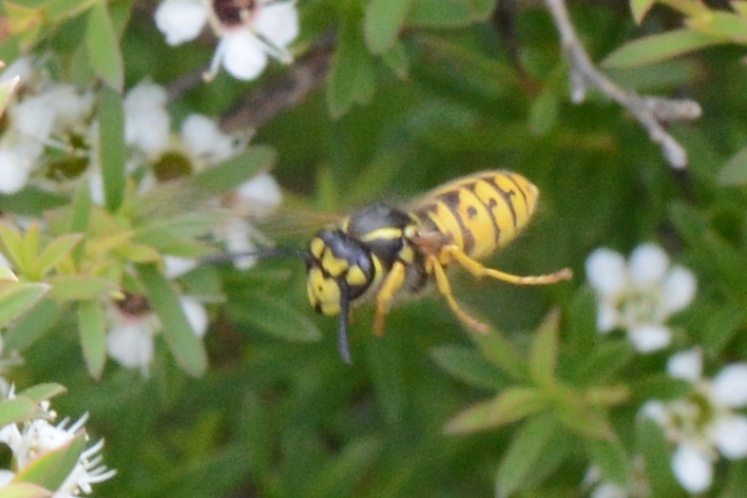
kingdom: Animalia
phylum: Arthropoda
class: Insecta
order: Hymenoptera
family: Vespidae
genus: Vespula
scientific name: Vespula germanica
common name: German wasp
